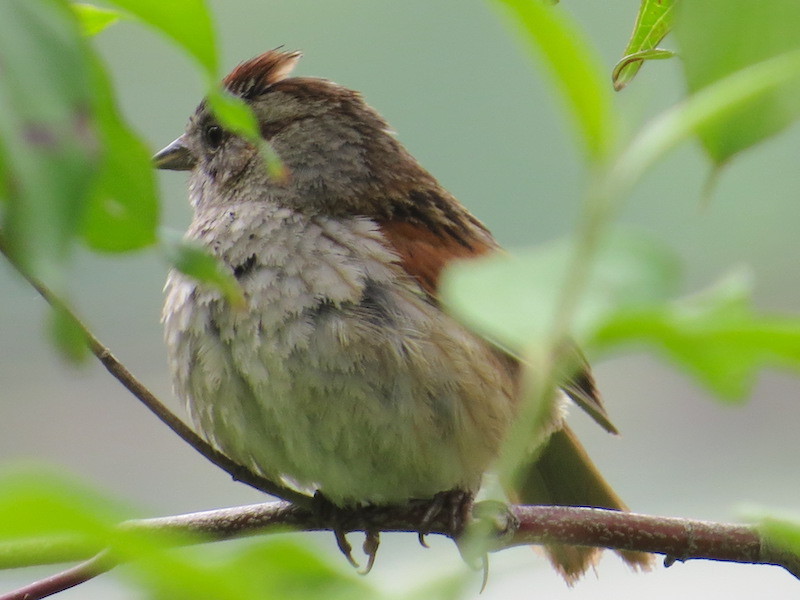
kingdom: Animalia
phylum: Chordata
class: Aves
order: Passeriformes
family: Passerellidae
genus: Melospiza
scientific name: Melospiza georgiana
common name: Swamp sparrow
